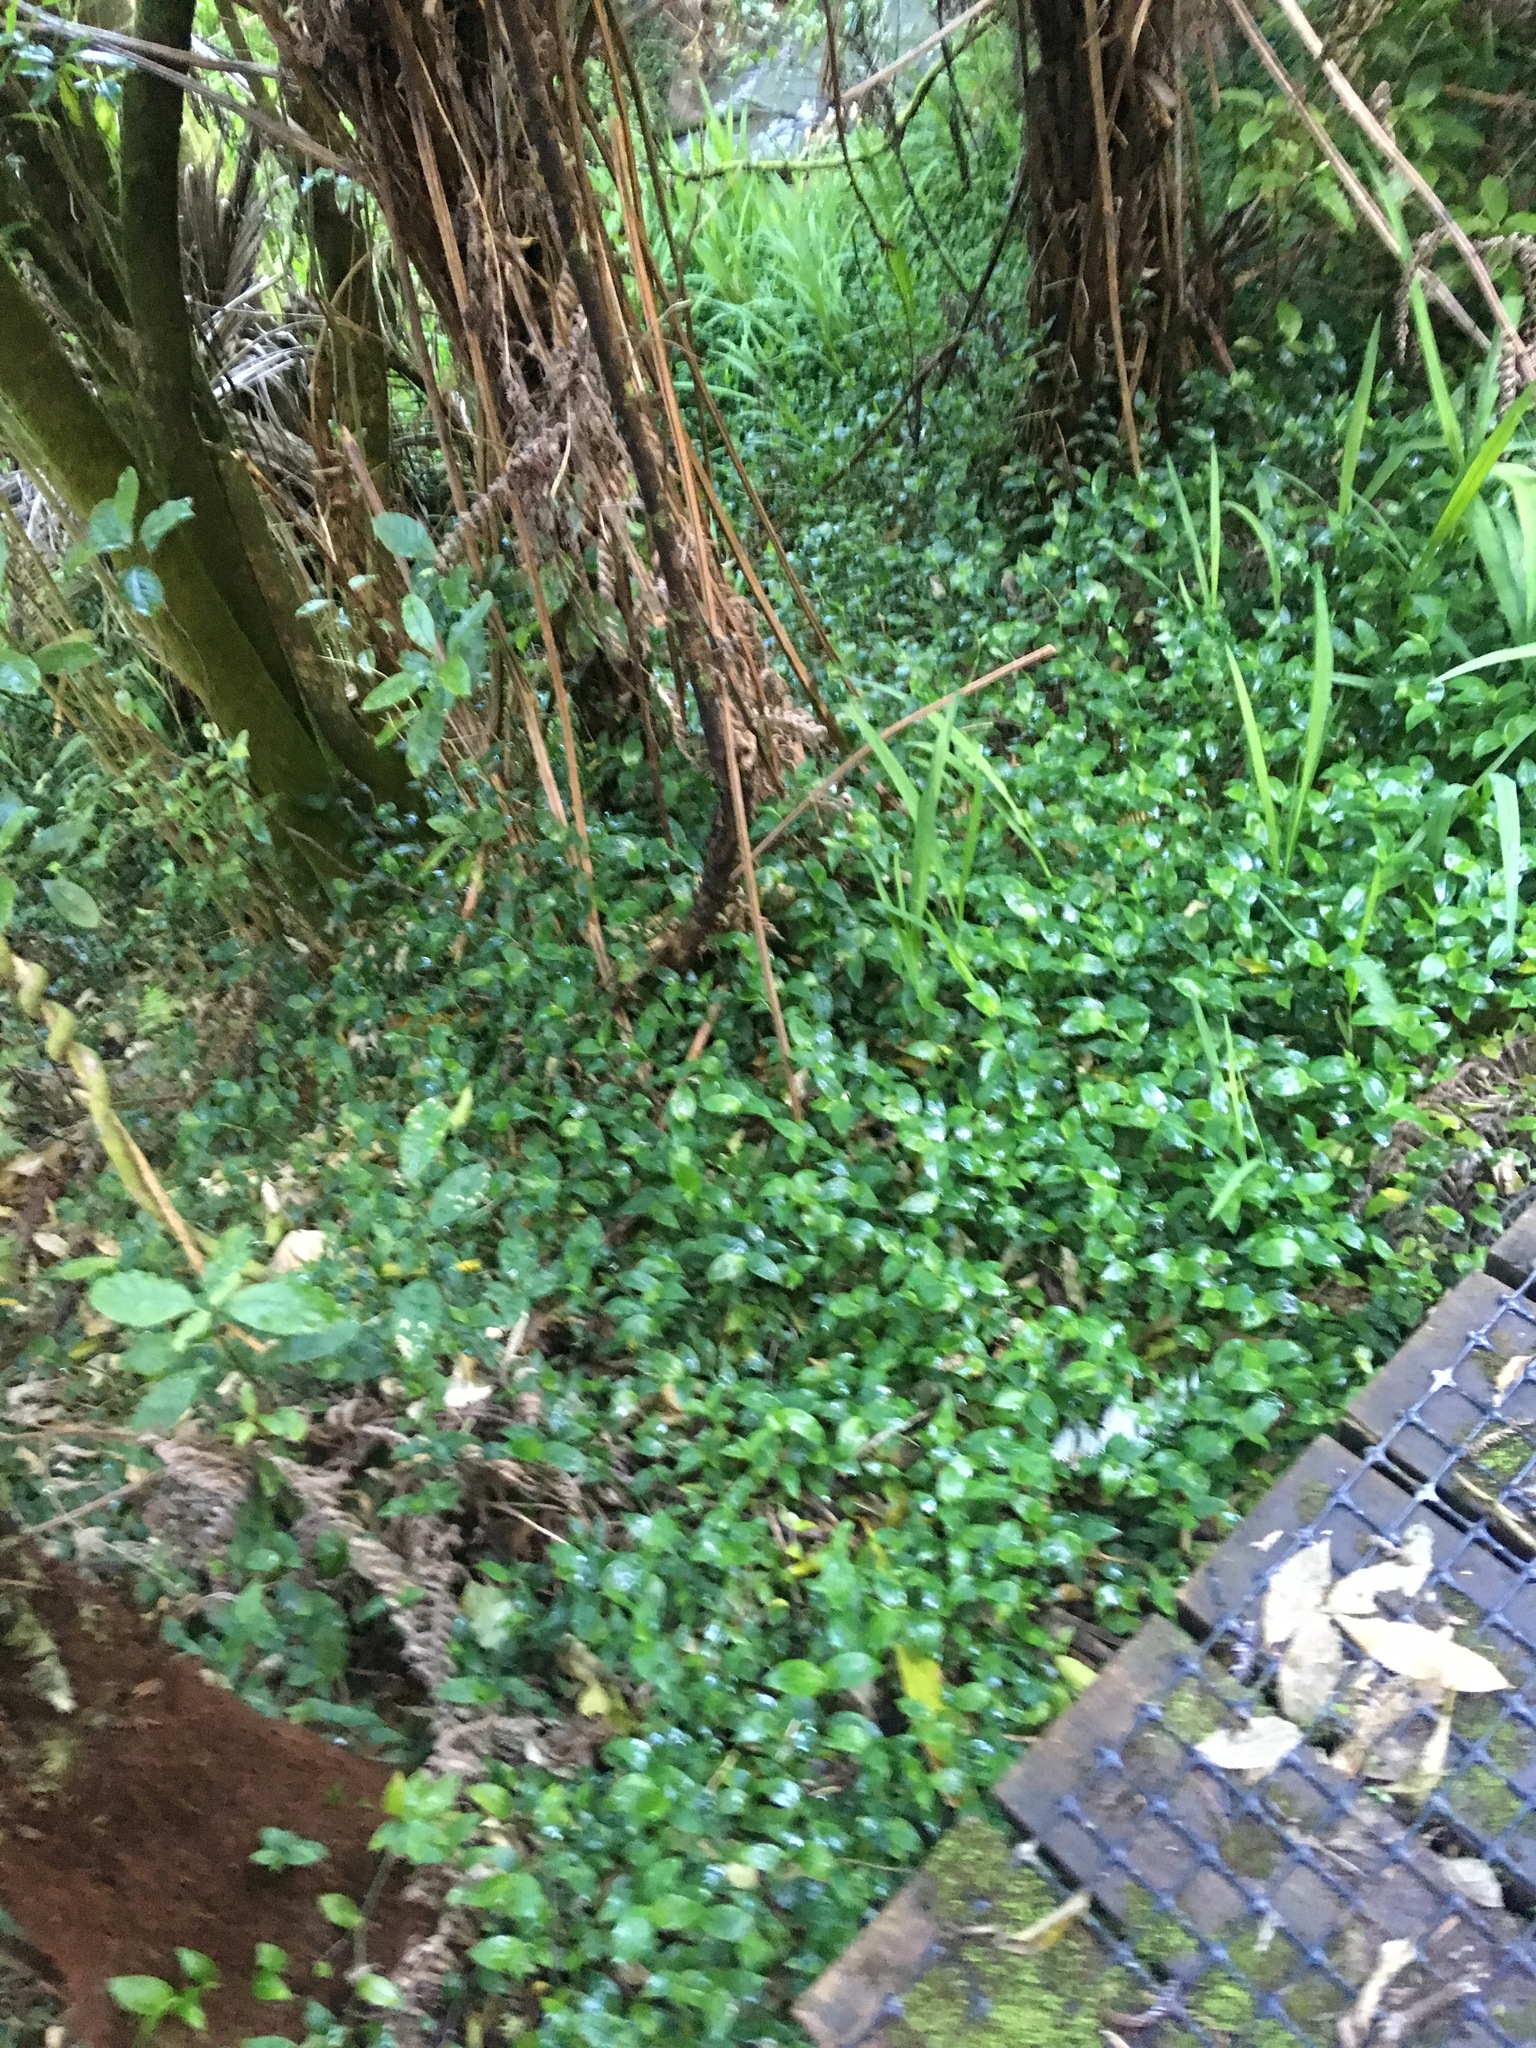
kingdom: Plantae
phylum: Tracheophyta
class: Liliopsida
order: Commelinales
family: Commelinaceae
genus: Tradescantia
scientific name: Tradescantia fluminensis
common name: Wandering-jew
